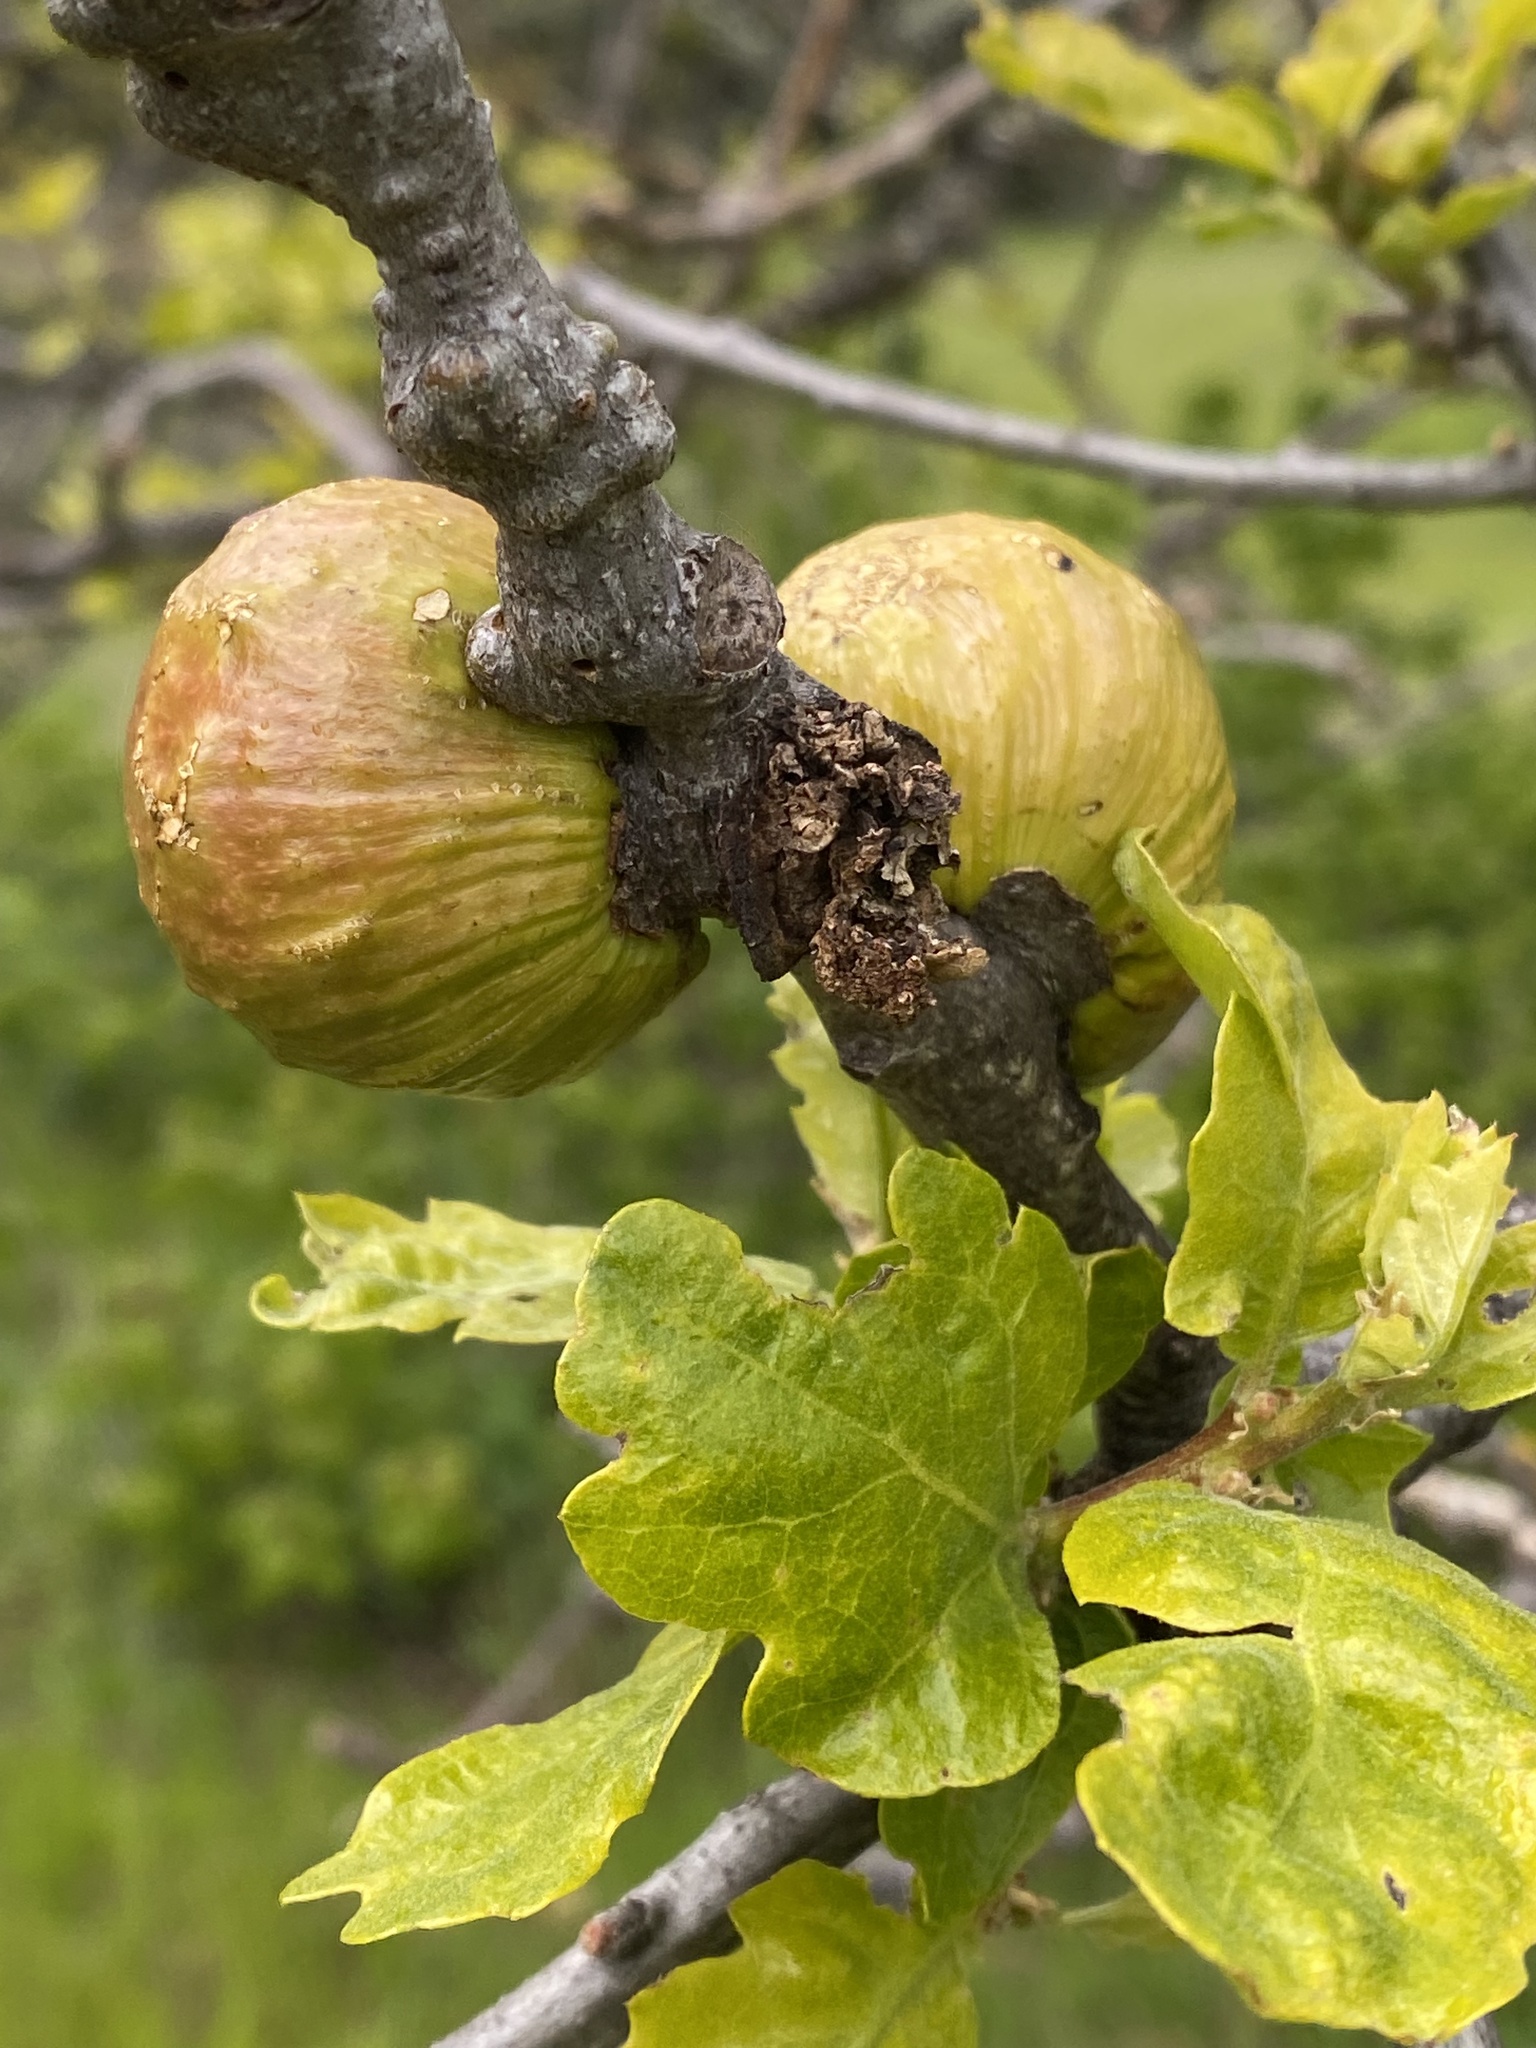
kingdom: Animalia
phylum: Arthropoda
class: Insecta
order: Hymenoptera
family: Cynipidae
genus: Andricus
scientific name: Andricus quercuscalifornicus
